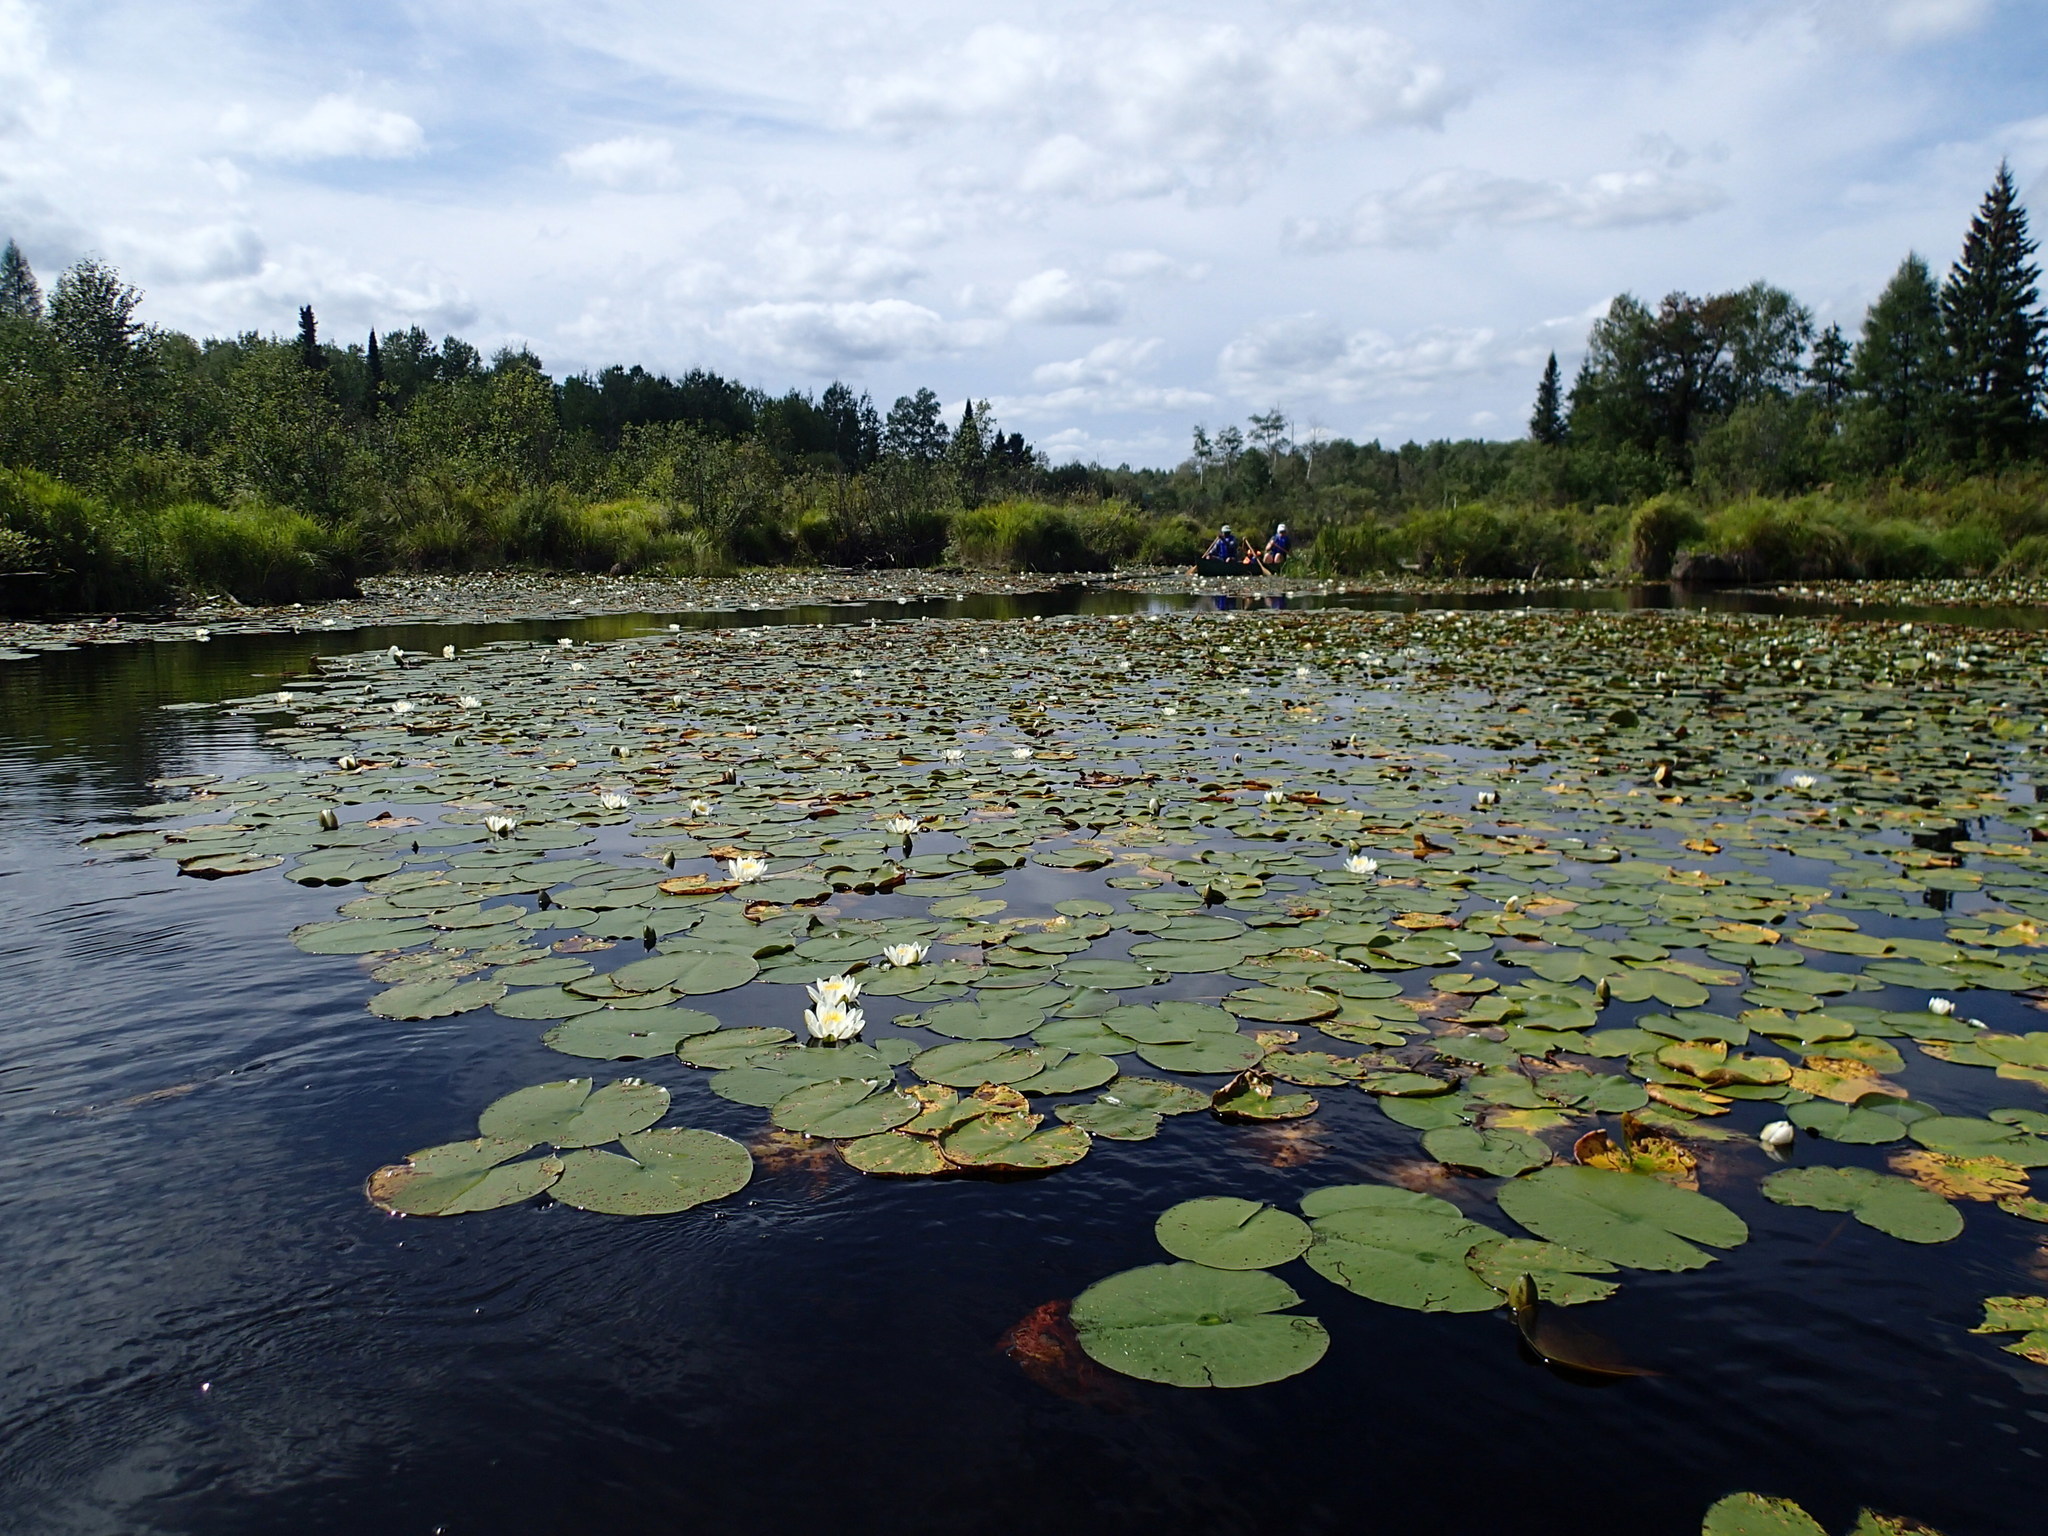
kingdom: Plantae
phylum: Tracheophyta
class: Magnoliopsida
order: Nymphaeales
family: Nymphaeaceae
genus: Nymphaea
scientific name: Nymphaea odorata
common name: Fragrant water-lily
